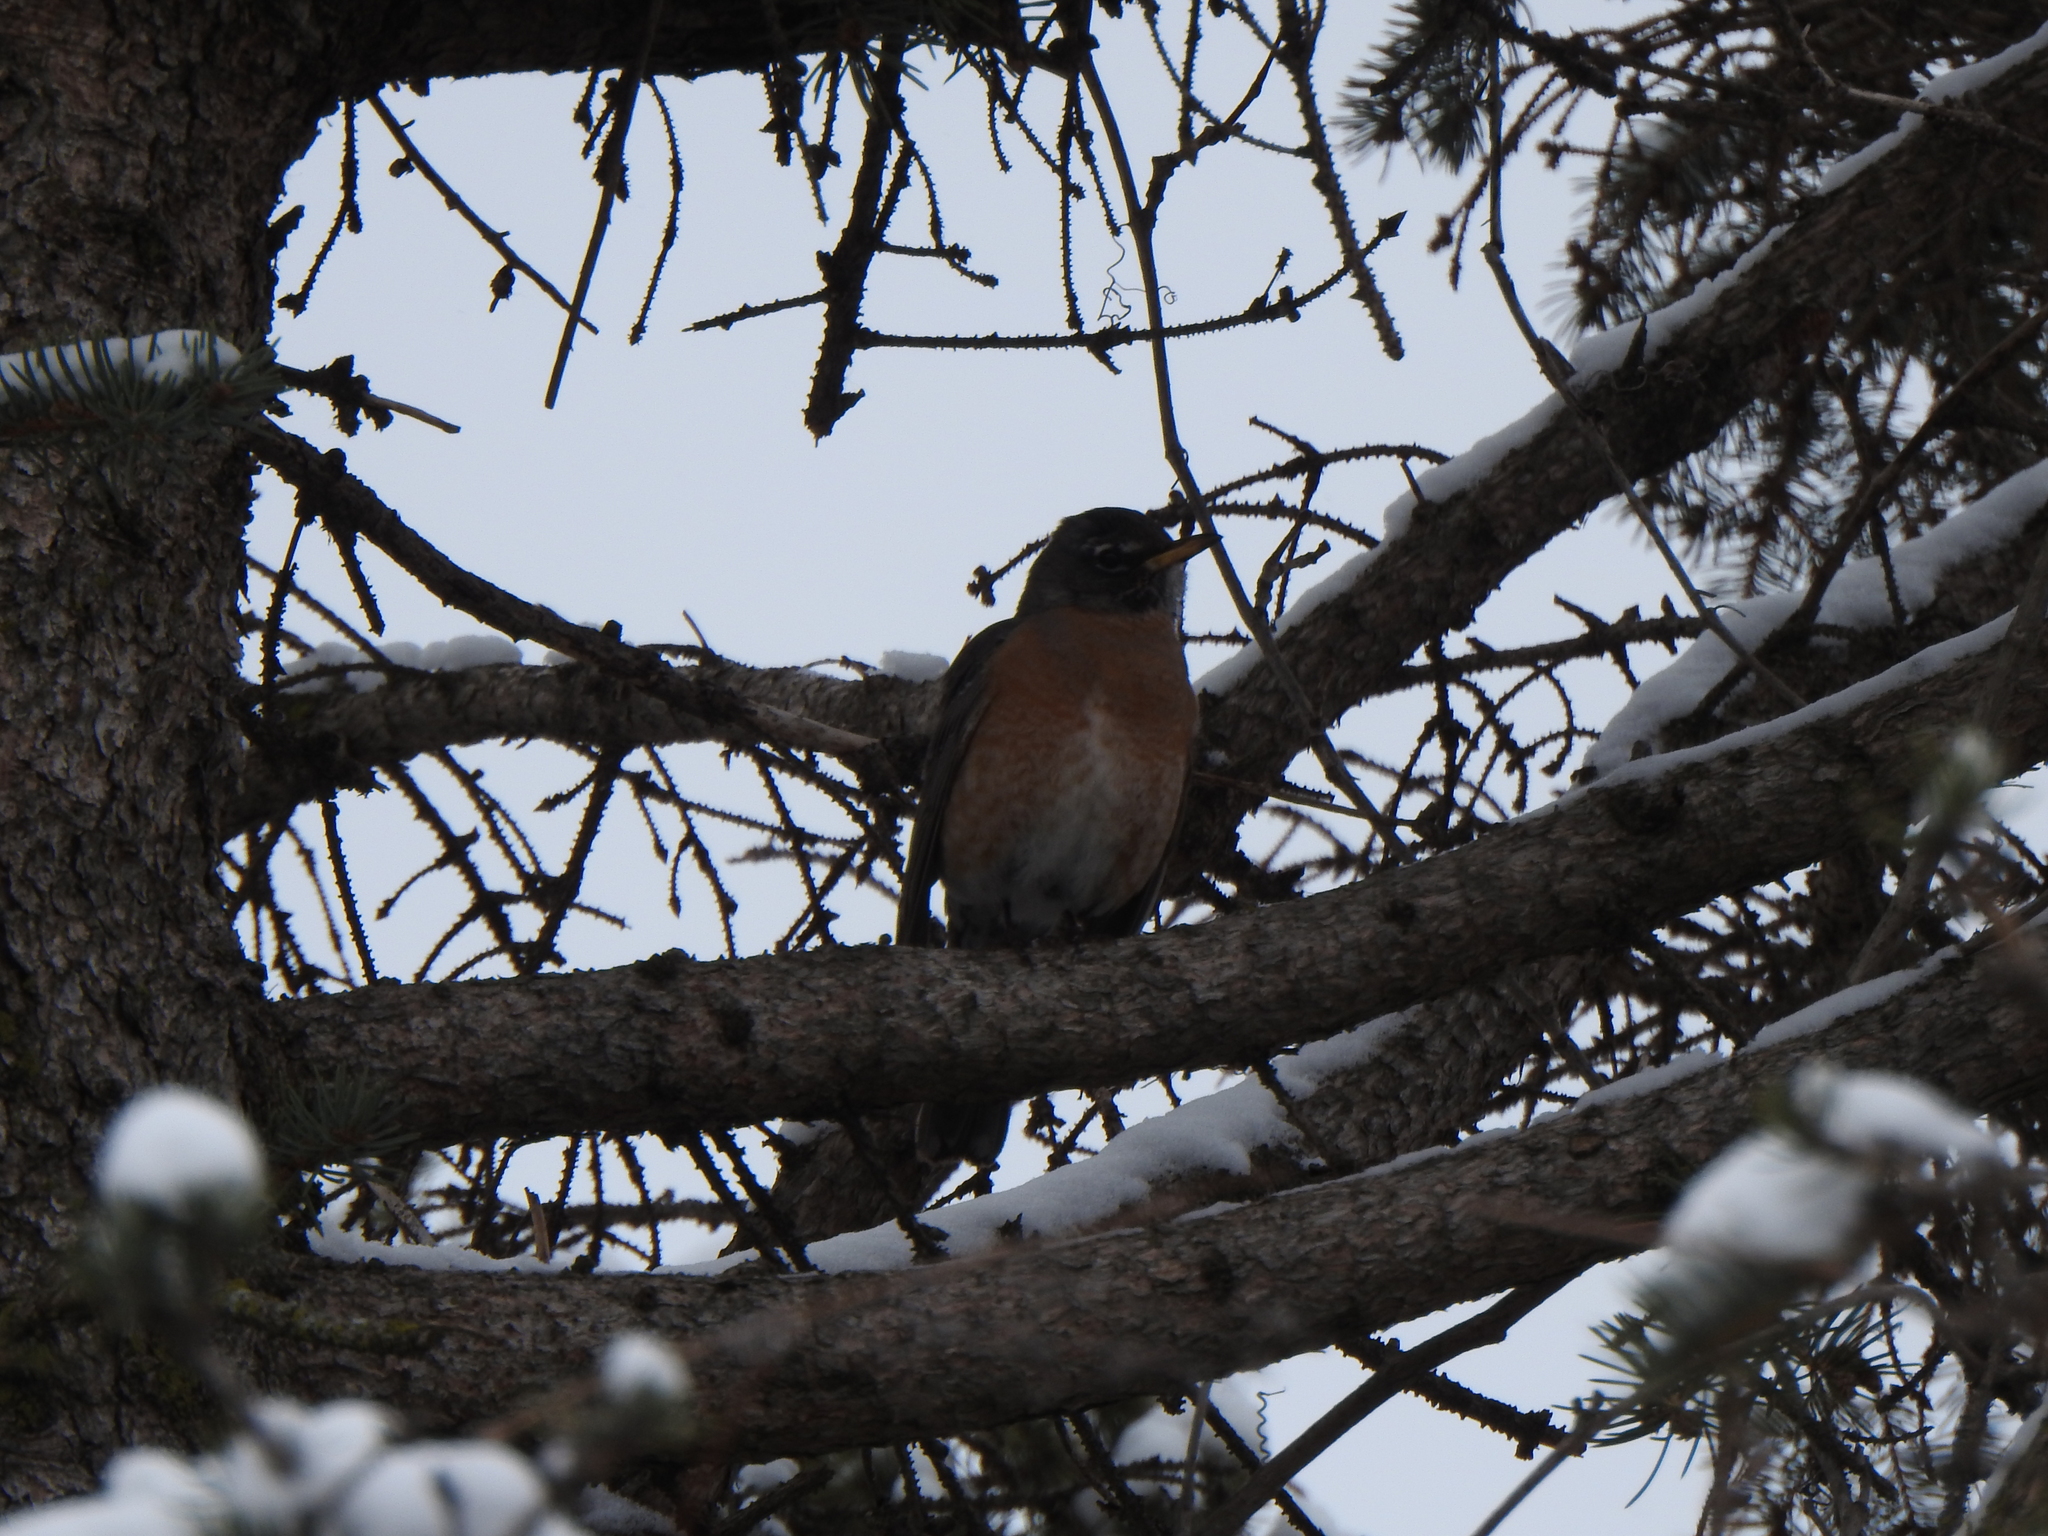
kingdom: Animalia
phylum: Chordata
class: Aves
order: Passeriformes
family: Turdidae
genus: Turdus
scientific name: Turdus migratorius
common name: American robin
